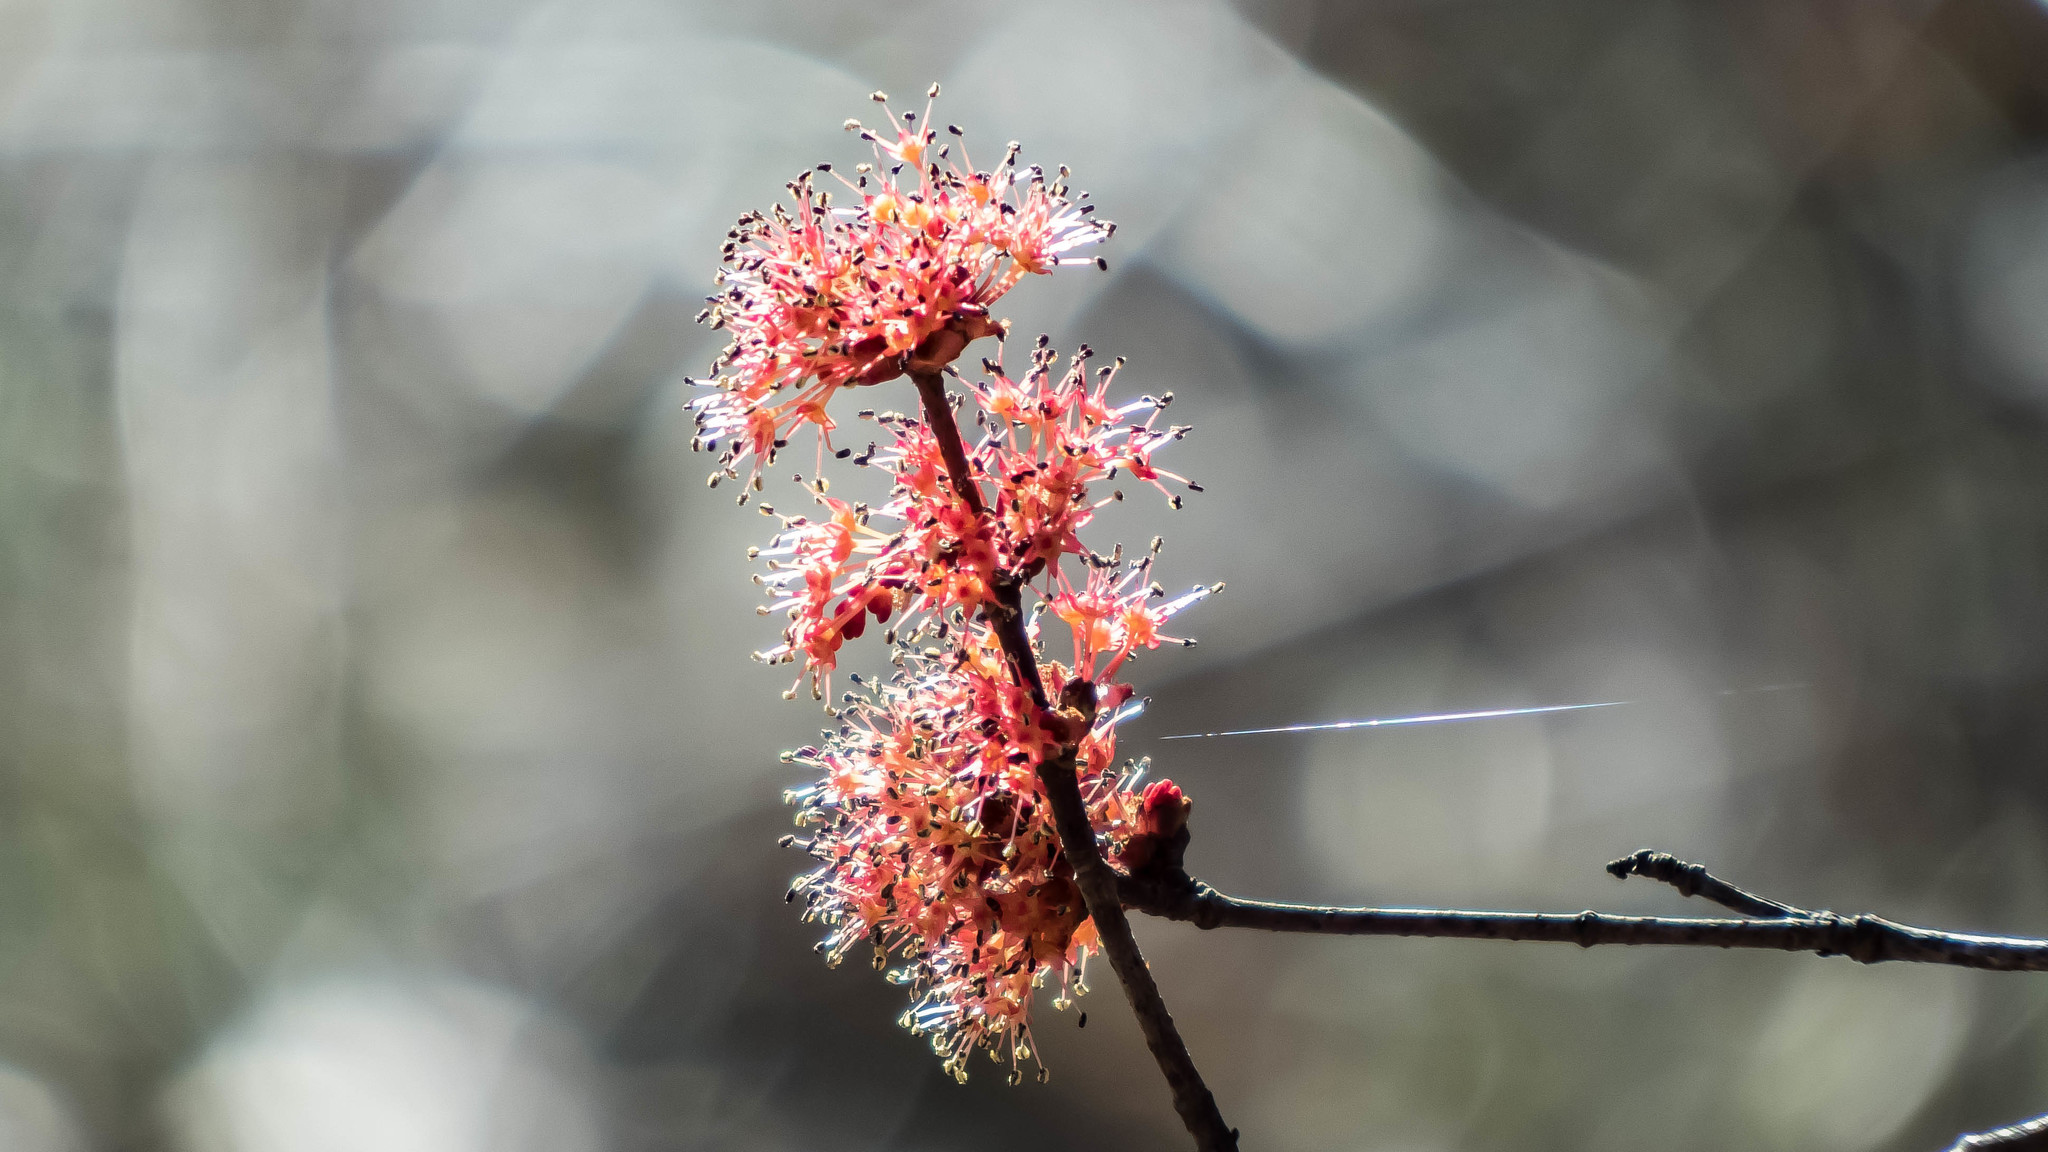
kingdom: Plantae
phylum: Tracheophyta
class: Magnoliopsida
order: Sapindales
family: Sapindaceae
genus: Acer
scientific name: Acer rubrum
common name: Red maple
